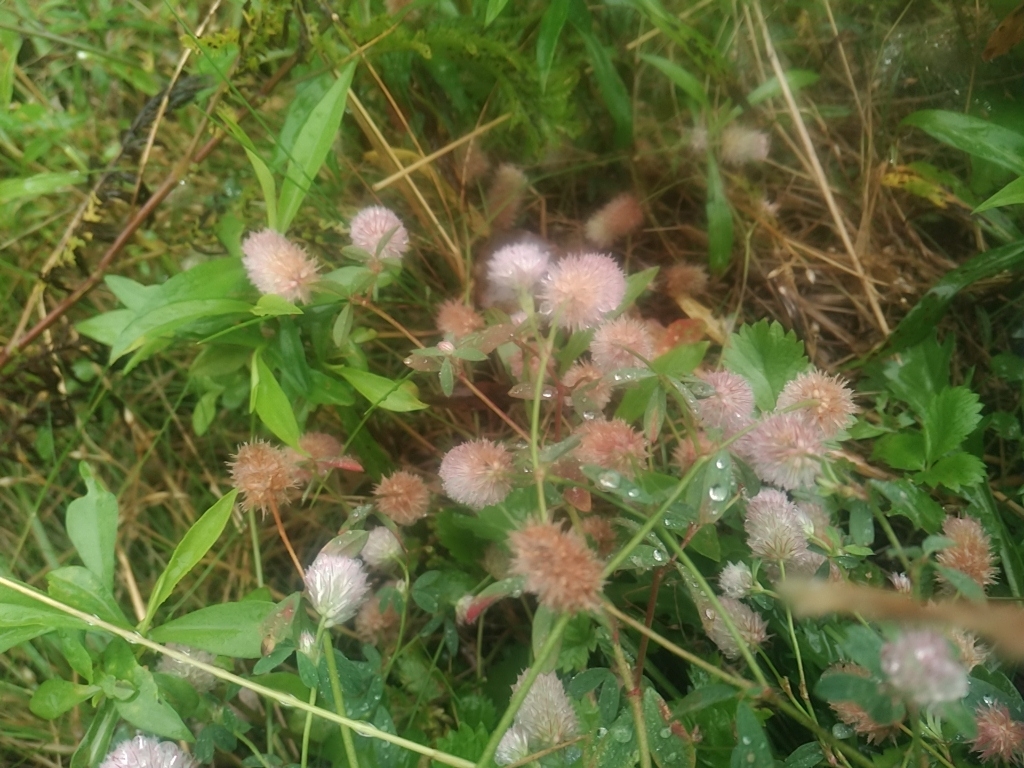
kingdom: Plantae
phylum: Tracheophyta
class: Magnoliopsida
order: Fabales
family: Fabaceae
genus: Trifolium
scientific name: Trifolium arvense
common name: Hare's-foot clover
